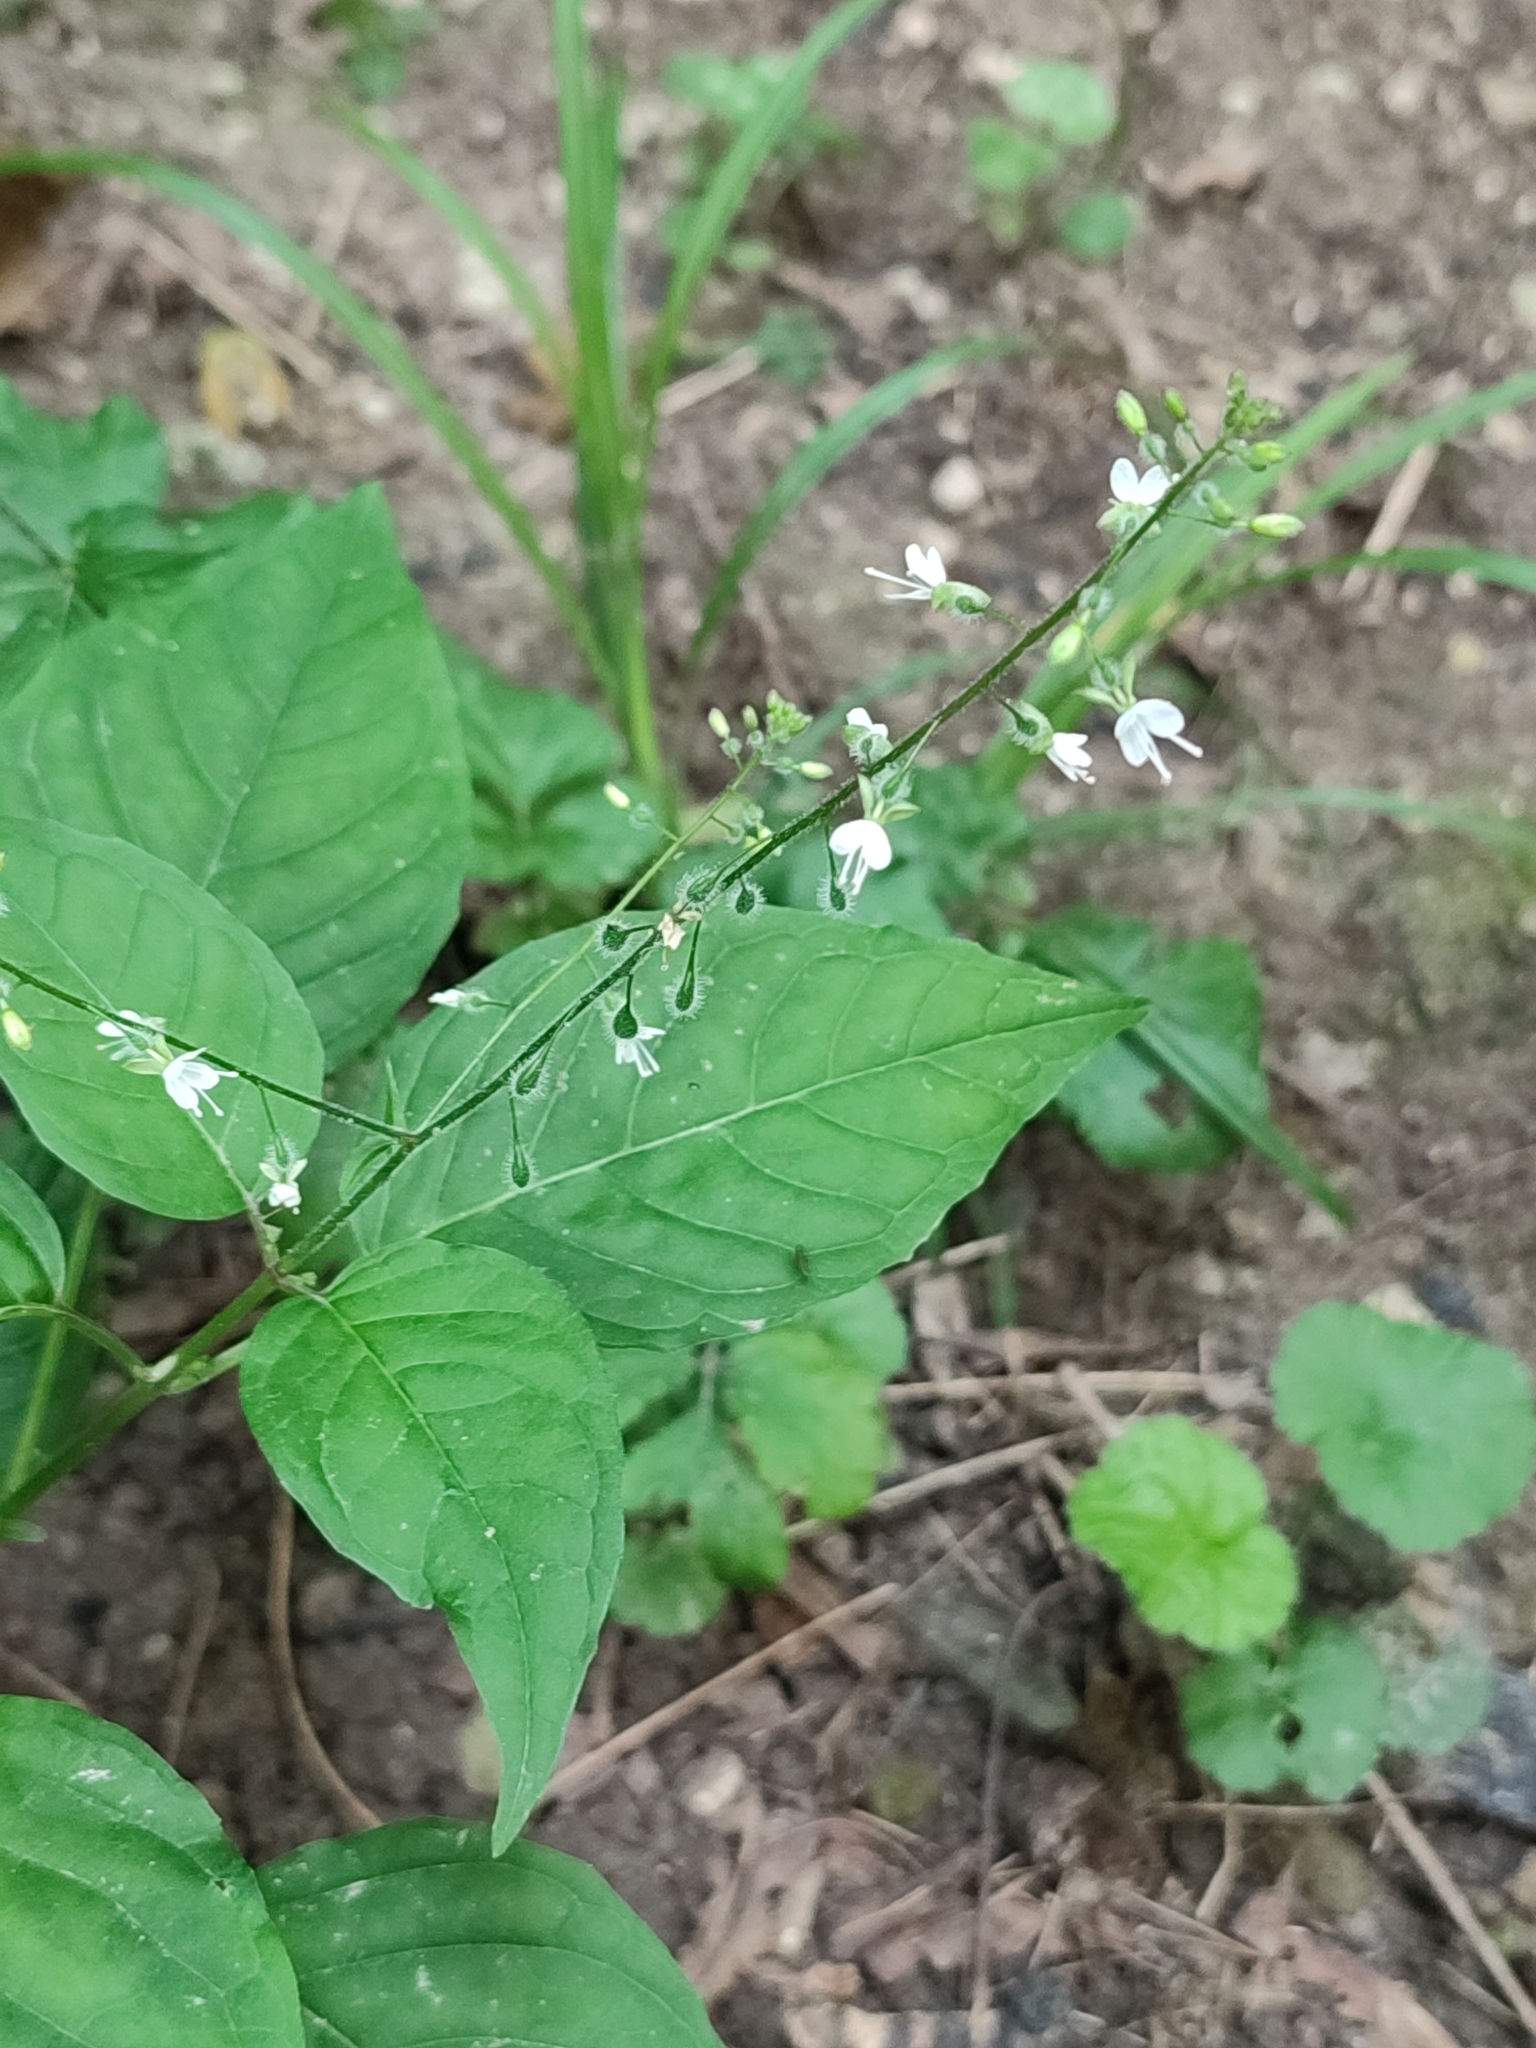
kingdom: Plantae
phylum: Tracheophyta
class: Magnoliopsida
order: Myrtales
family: Onagraceae
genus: Circaea
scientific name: Circaea lutetiana
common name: Enchanter's-nightshade
